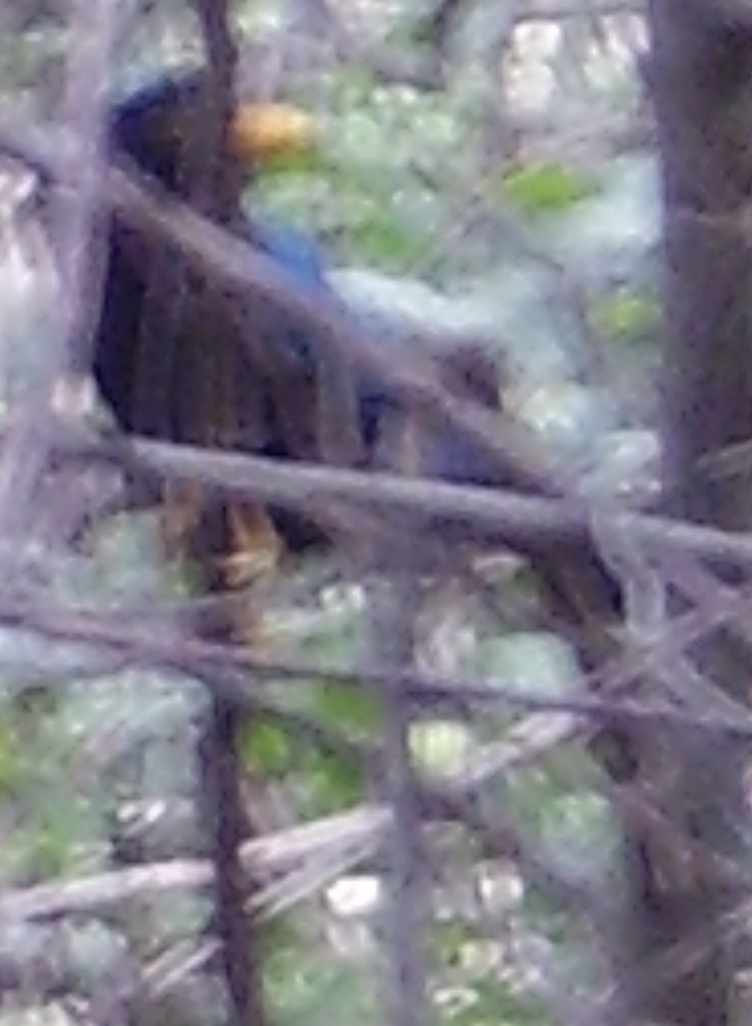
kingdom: Animalia
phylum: Chordata
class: Aves
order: Passeriformes
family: Corvidae
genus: Cyanocorax
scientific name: Cyanocorax yucatanicus
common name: Yucatan jay
